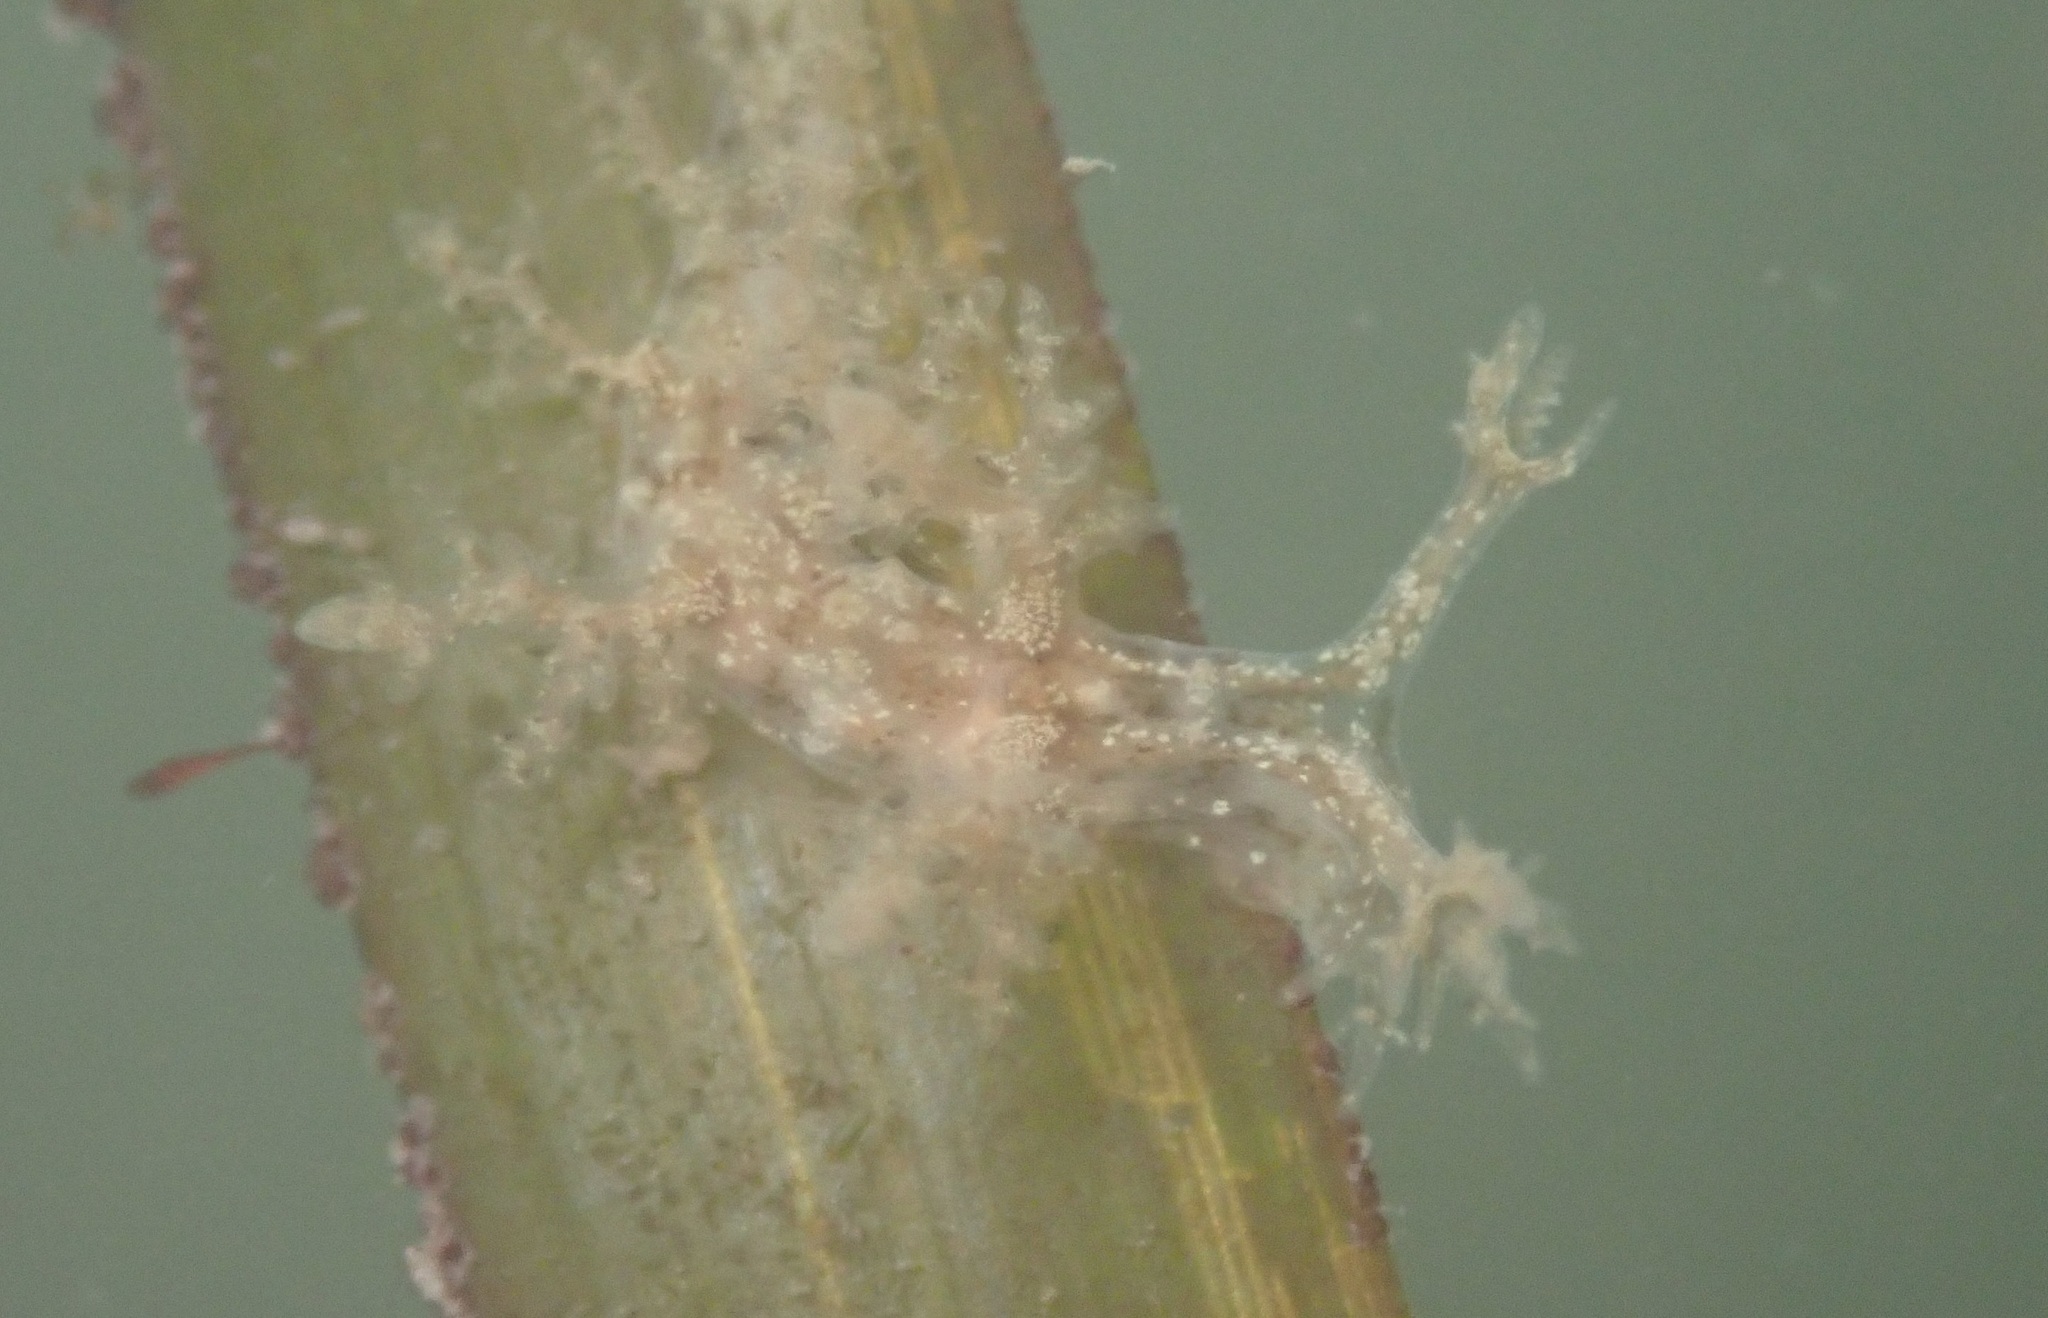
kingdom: Animalia
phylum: Mollusca
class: Gastropoda
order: Nudibranchia
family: Dendronotidae
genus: Dendronotus
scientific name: Dendronotus venustus
